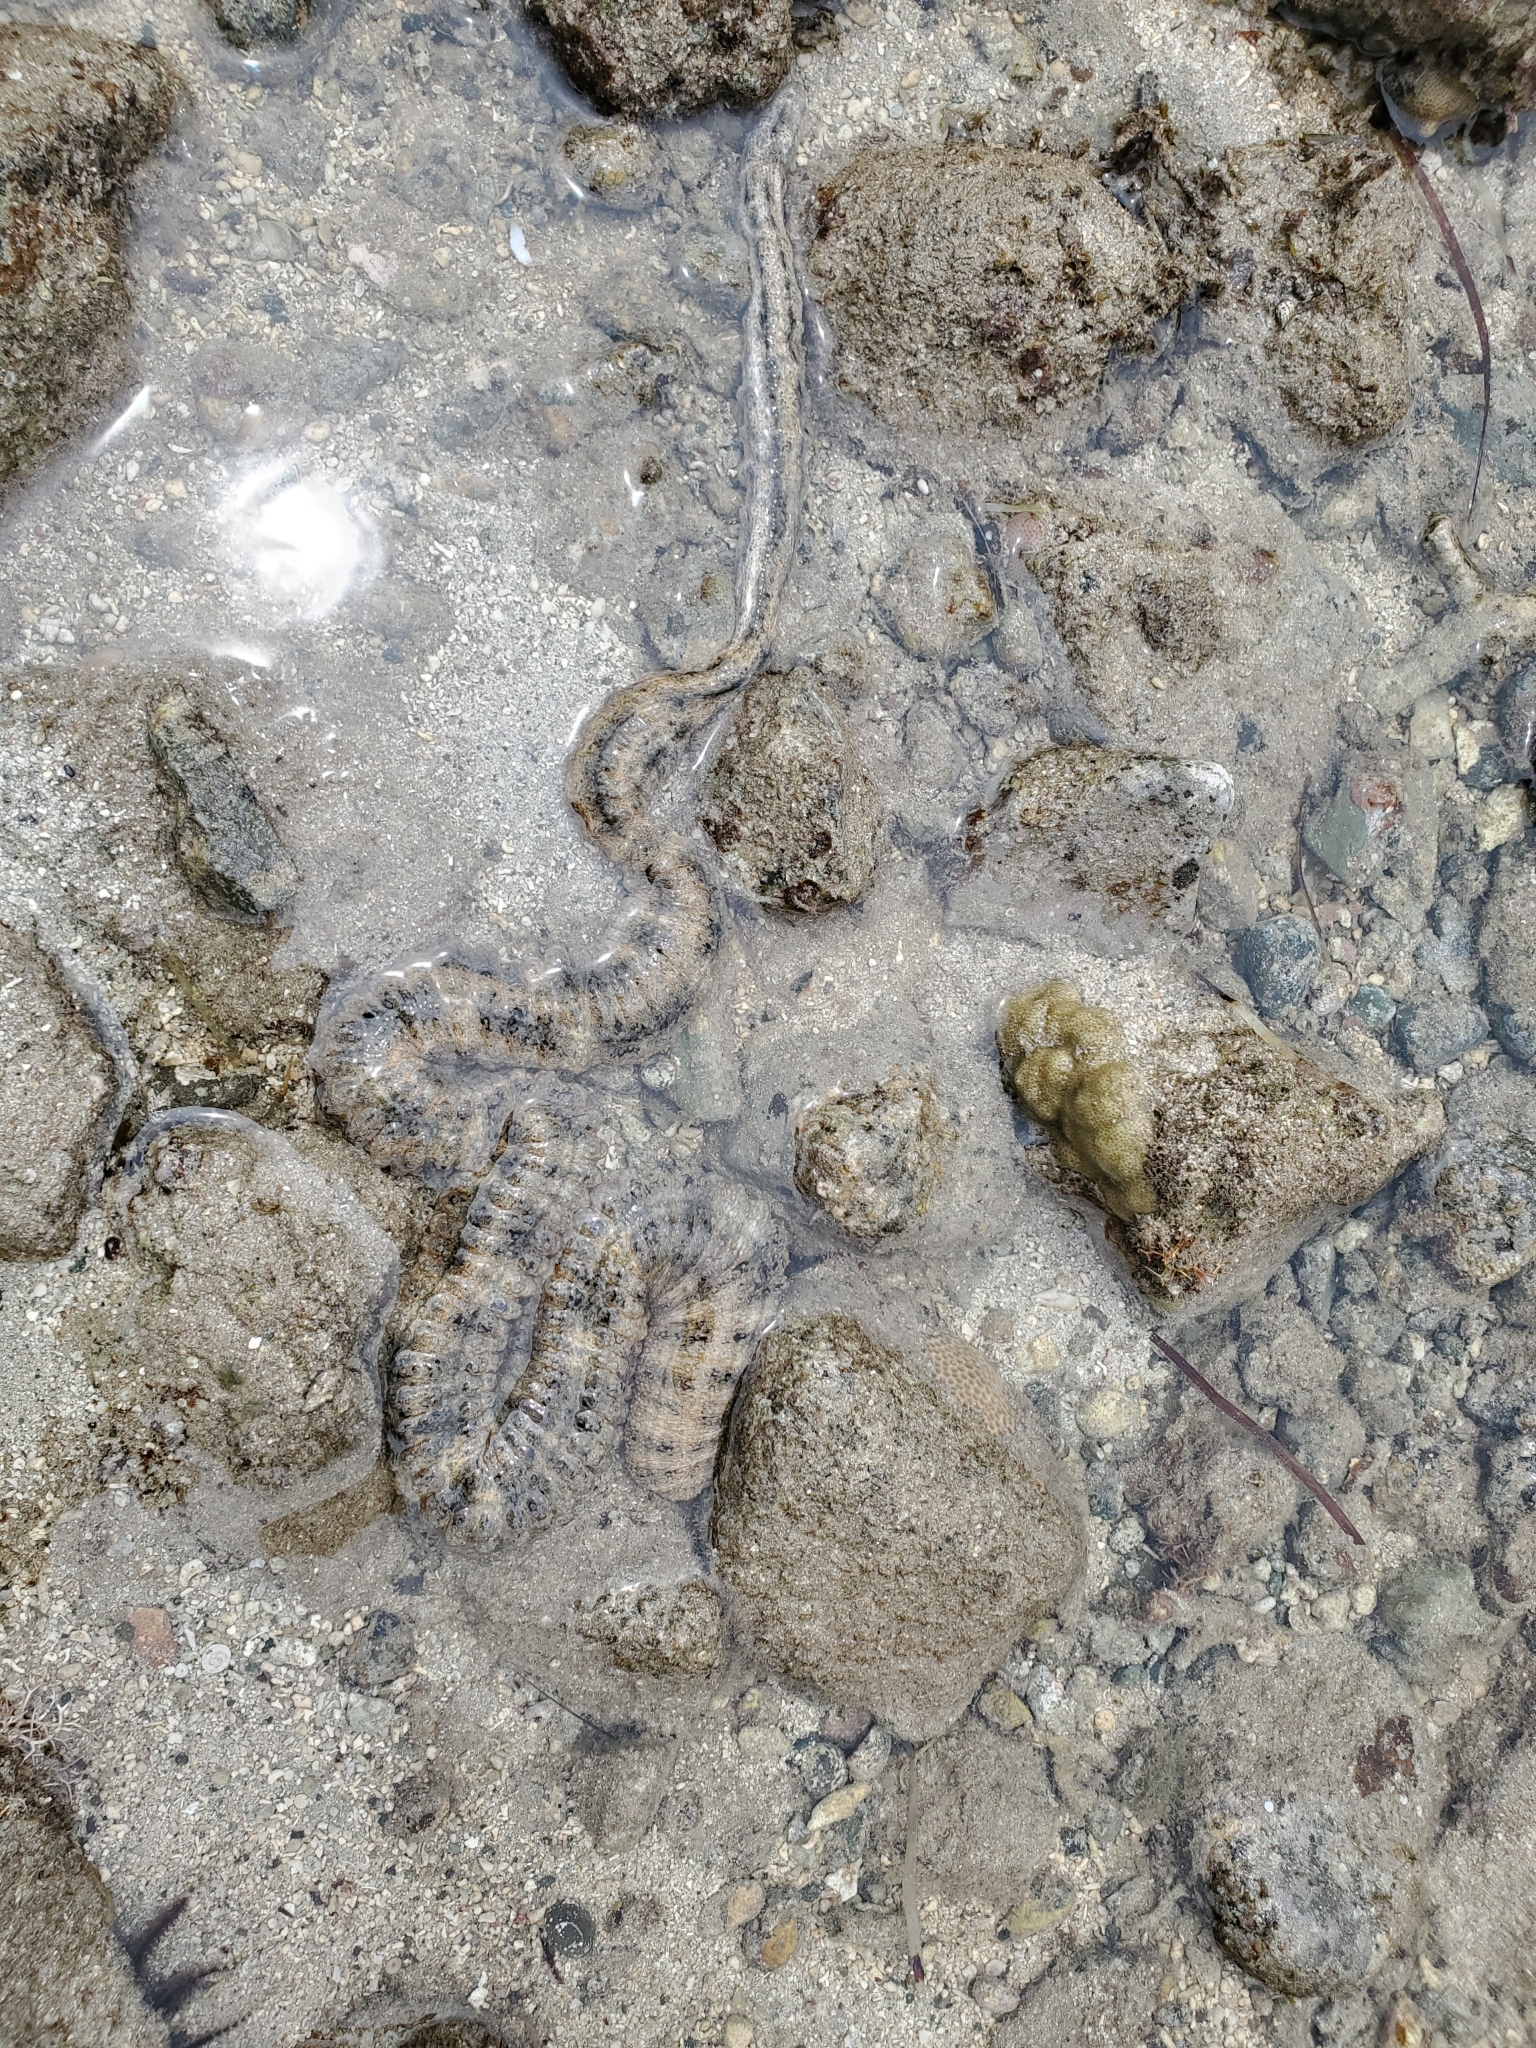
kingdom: Animalia
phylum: Echinodermata
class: Holothuroidea
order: Apodida
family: Synaptidae
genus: Synapta
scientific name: Synapta maculata
